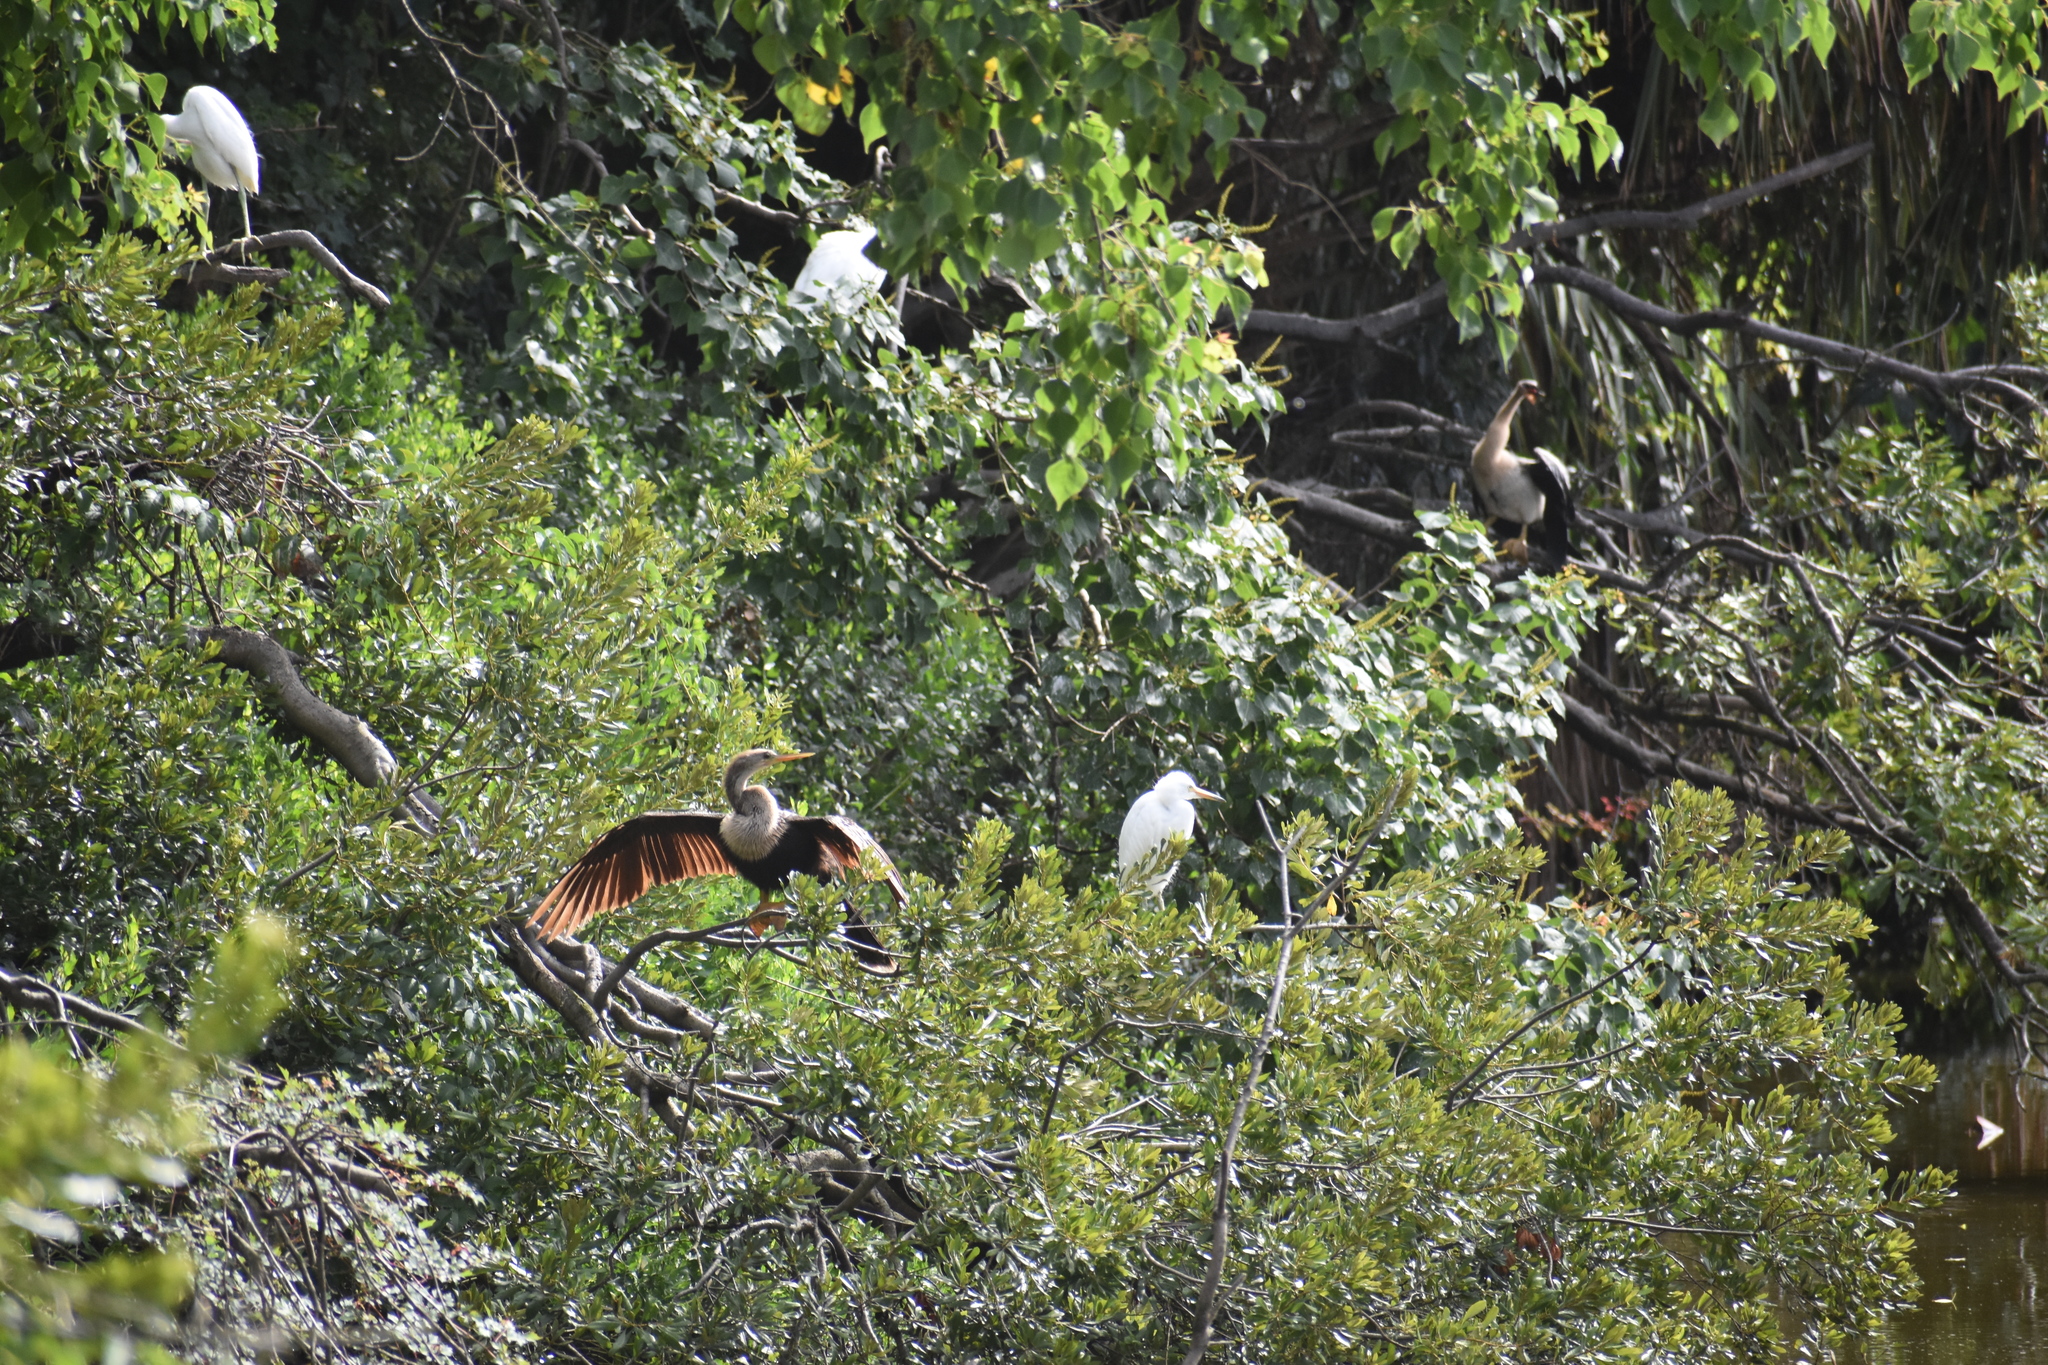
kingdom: Animalia
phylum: Chordata
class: Aves
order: Suliformes
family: Anhingidae
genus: Anhinga
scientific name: Anhinga anhinga
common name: Anhinga
